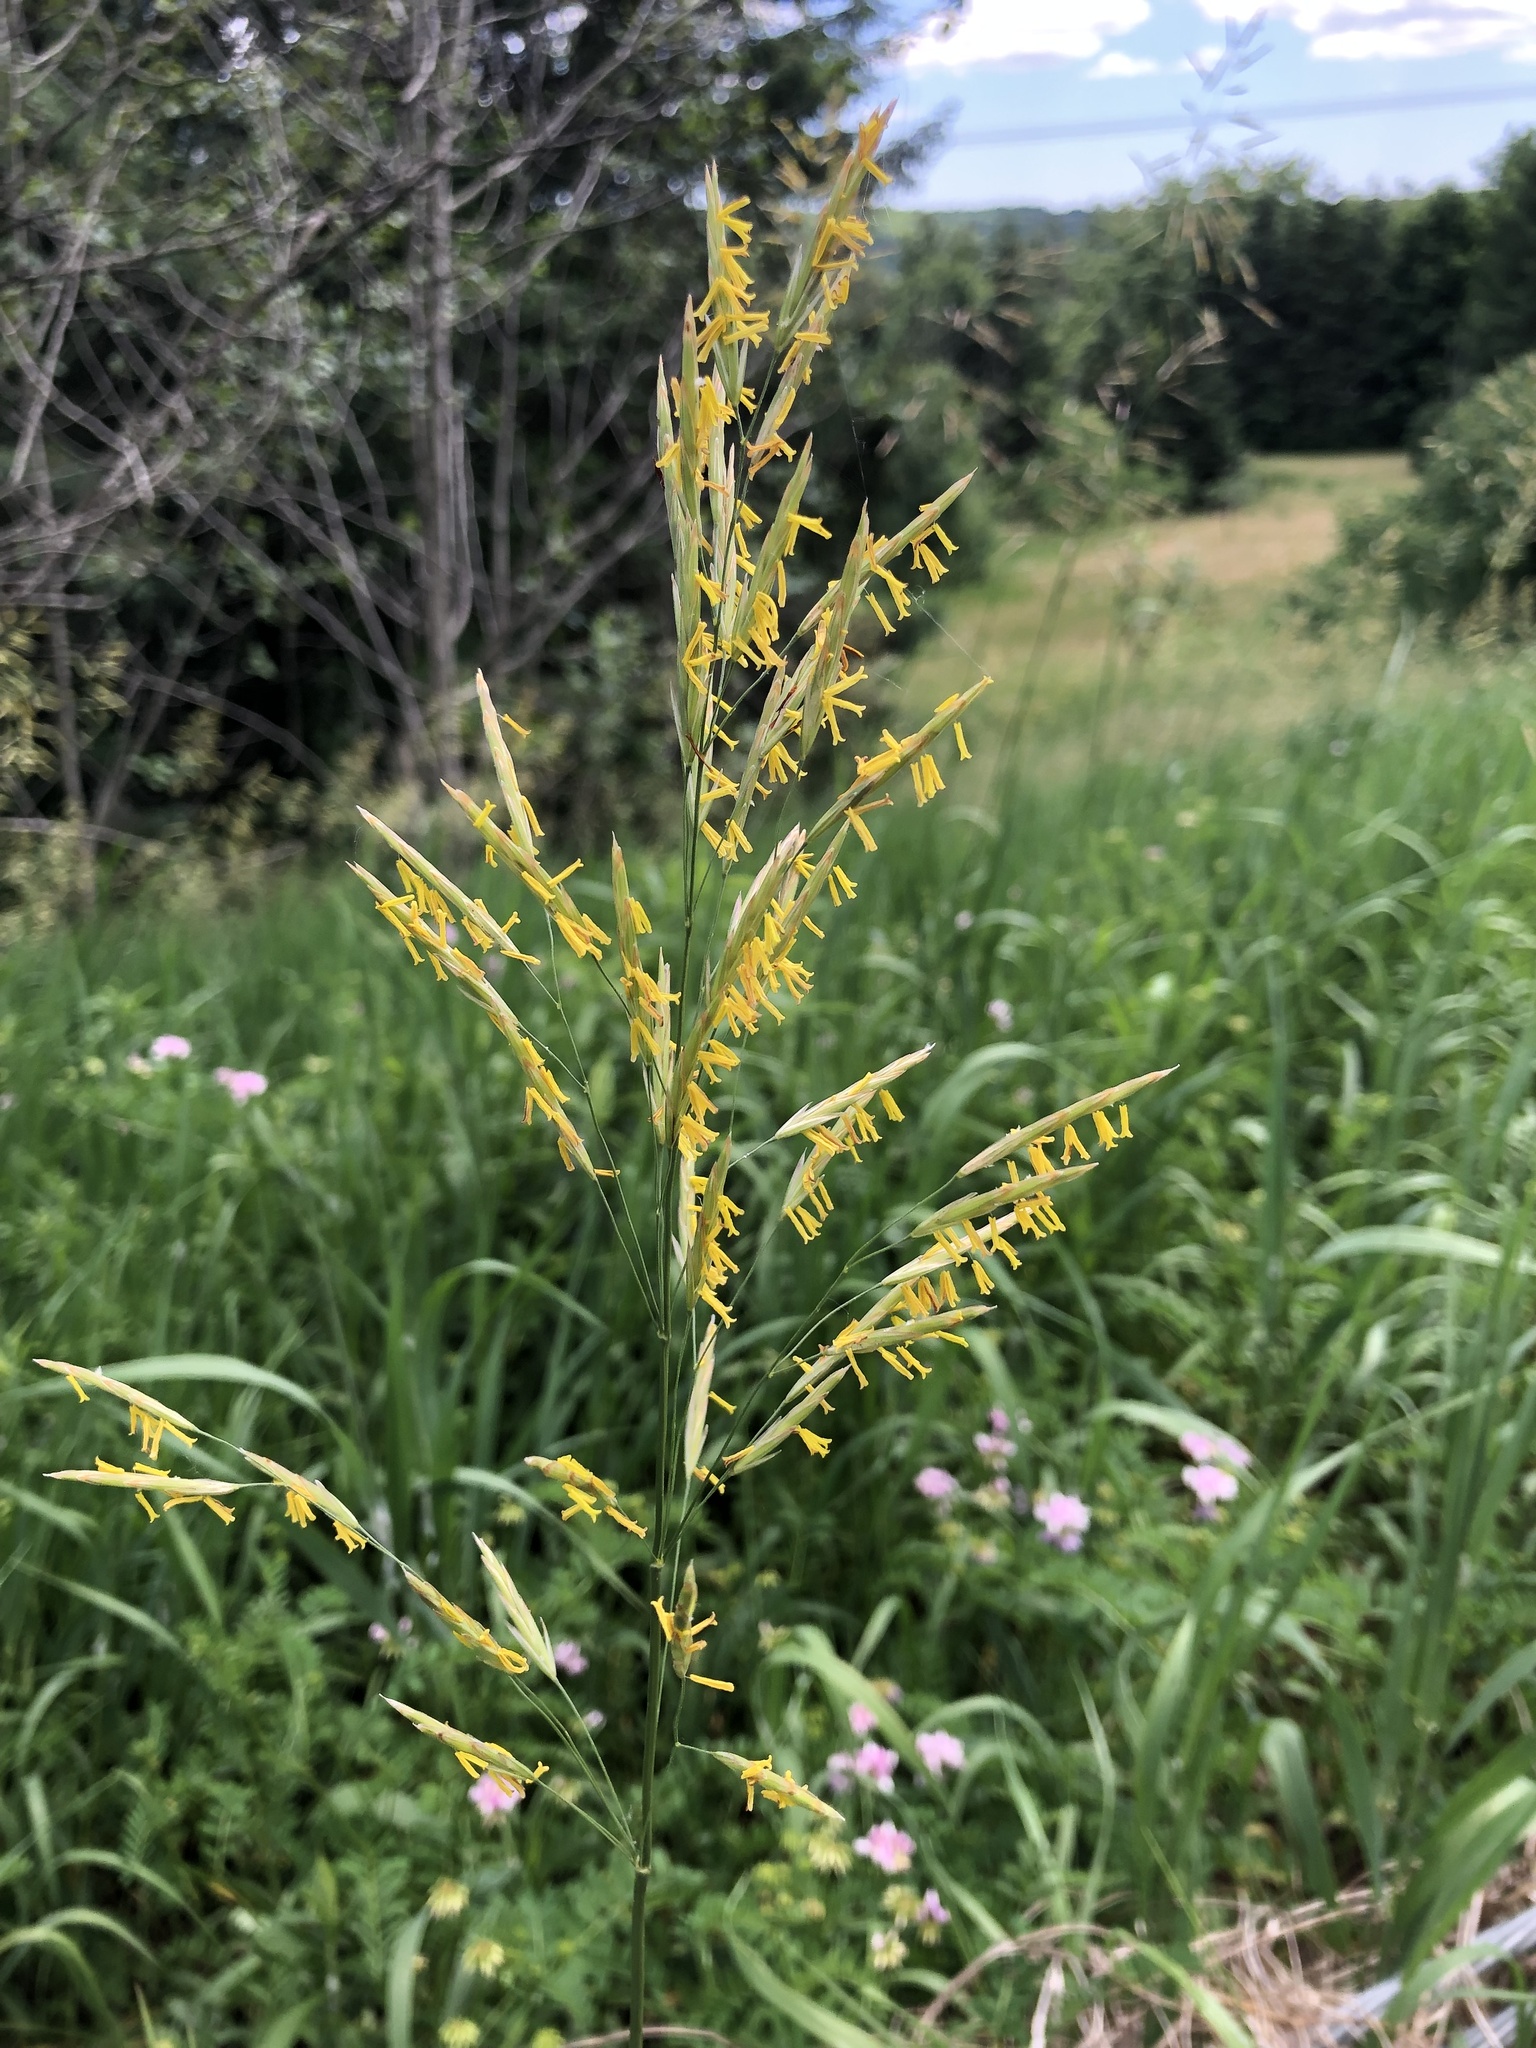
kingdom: Plantae
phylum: Tracheophyta
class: Liliopsida
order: Poales
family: Poaceae
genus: Bromus
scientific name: Bromus inermis
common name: Smooth brome
